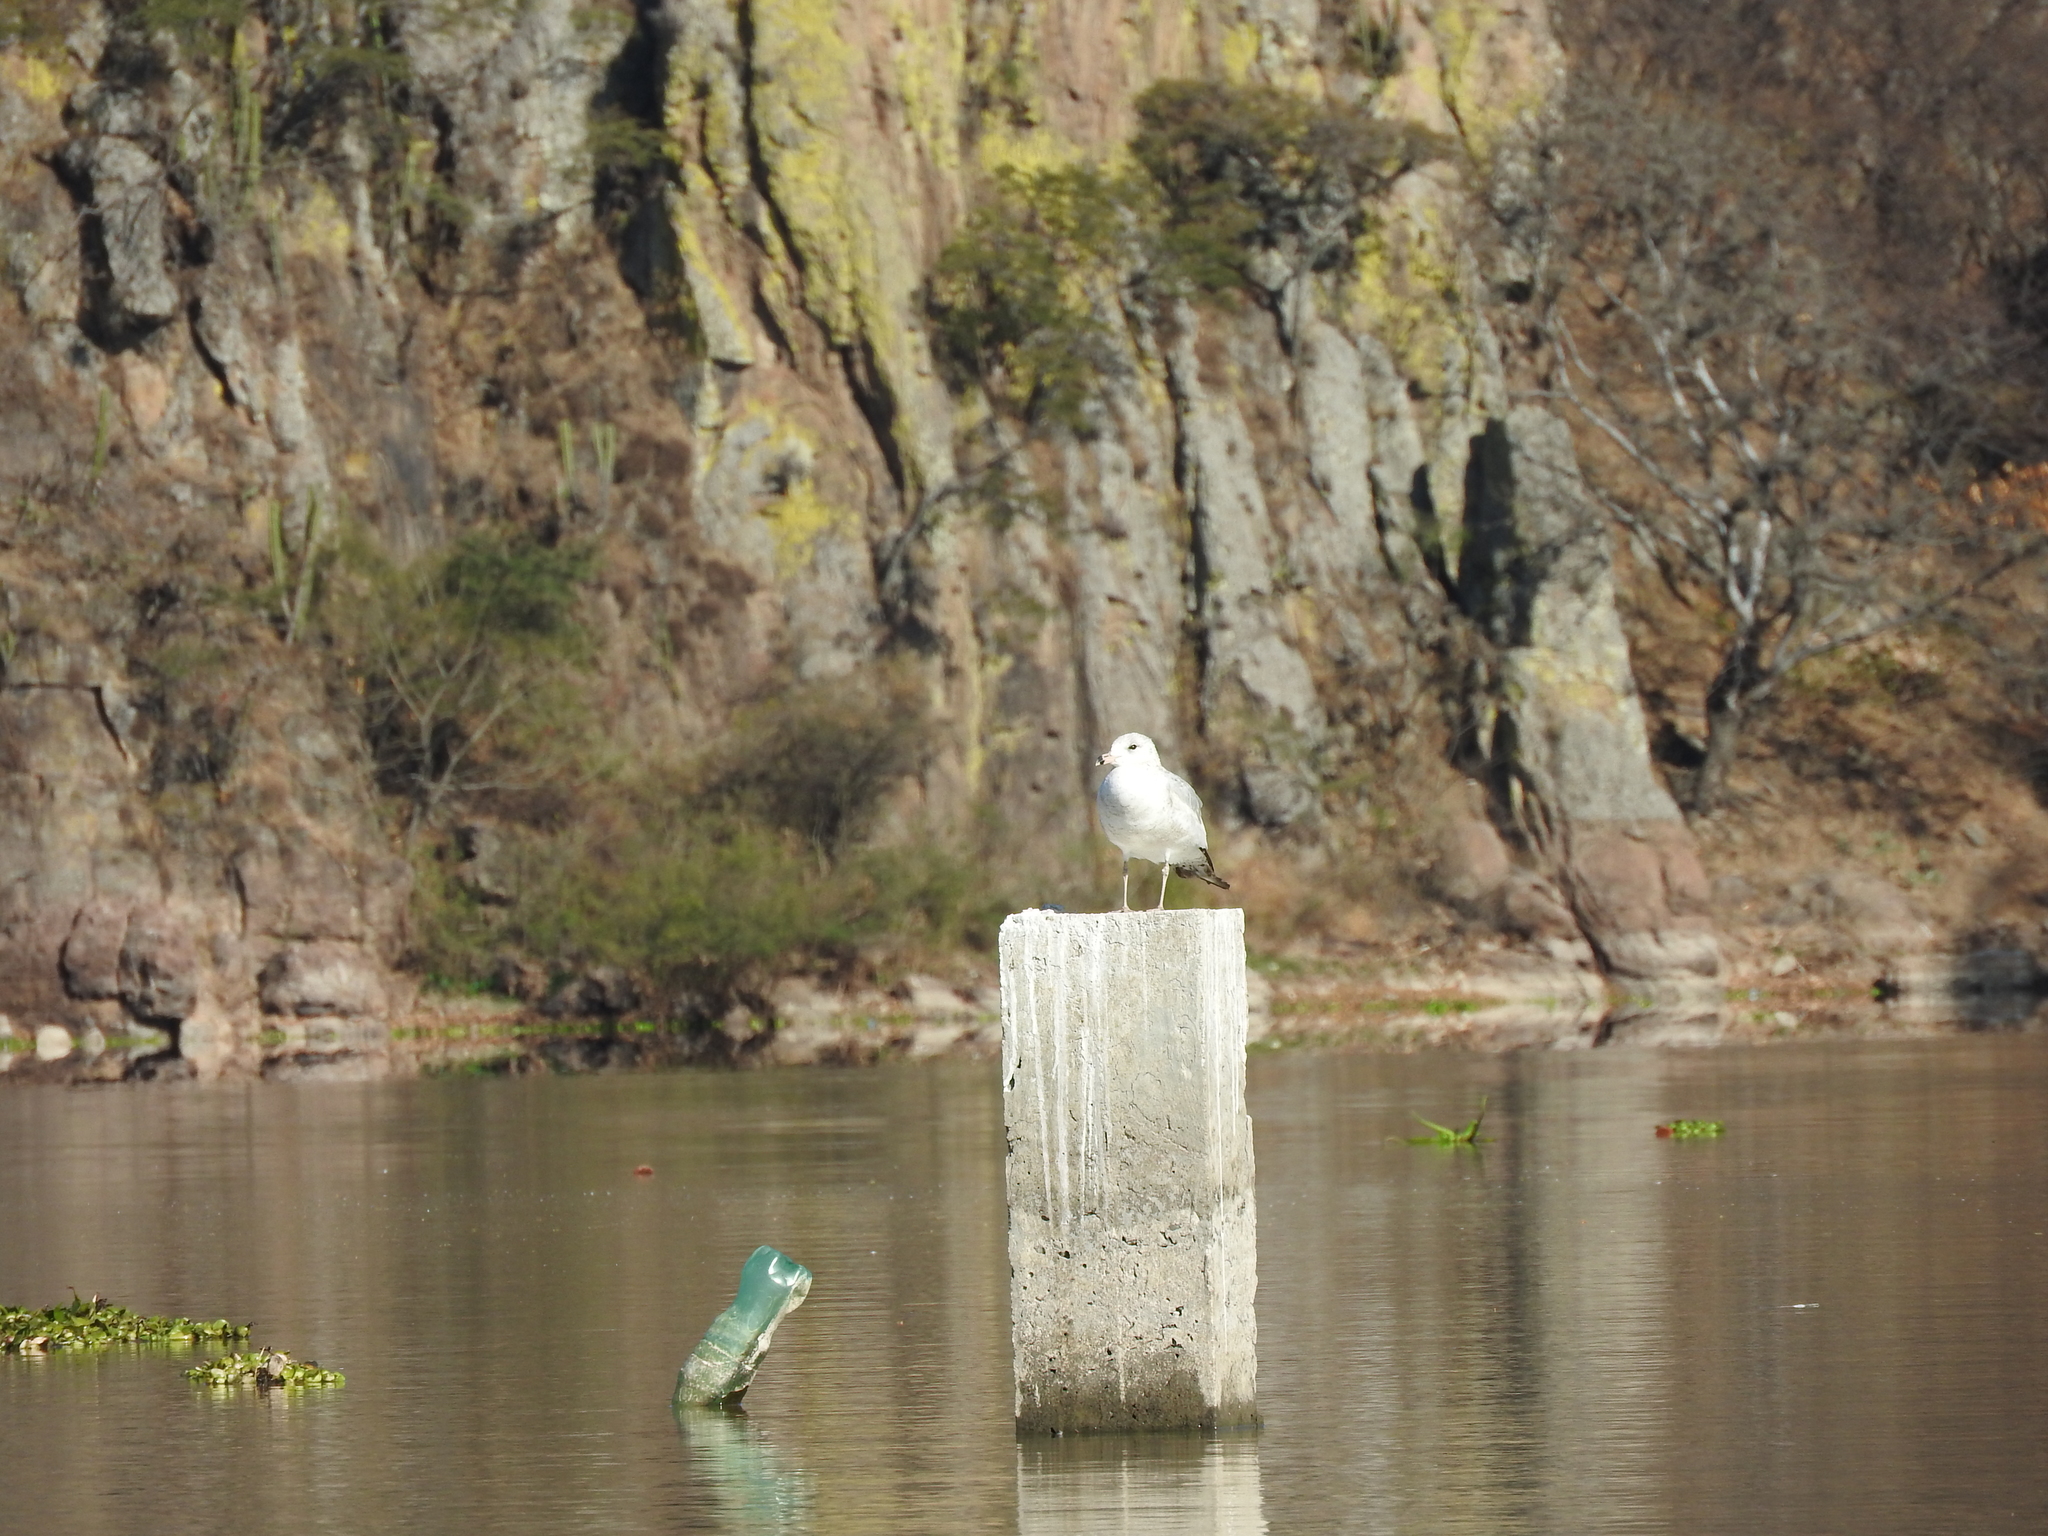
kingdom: Animalia
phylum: Chordata
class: Aves
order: Charadriiformes
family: Laridae
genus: Larus
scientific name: Larus delawarensis
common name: Ring-billed gull
